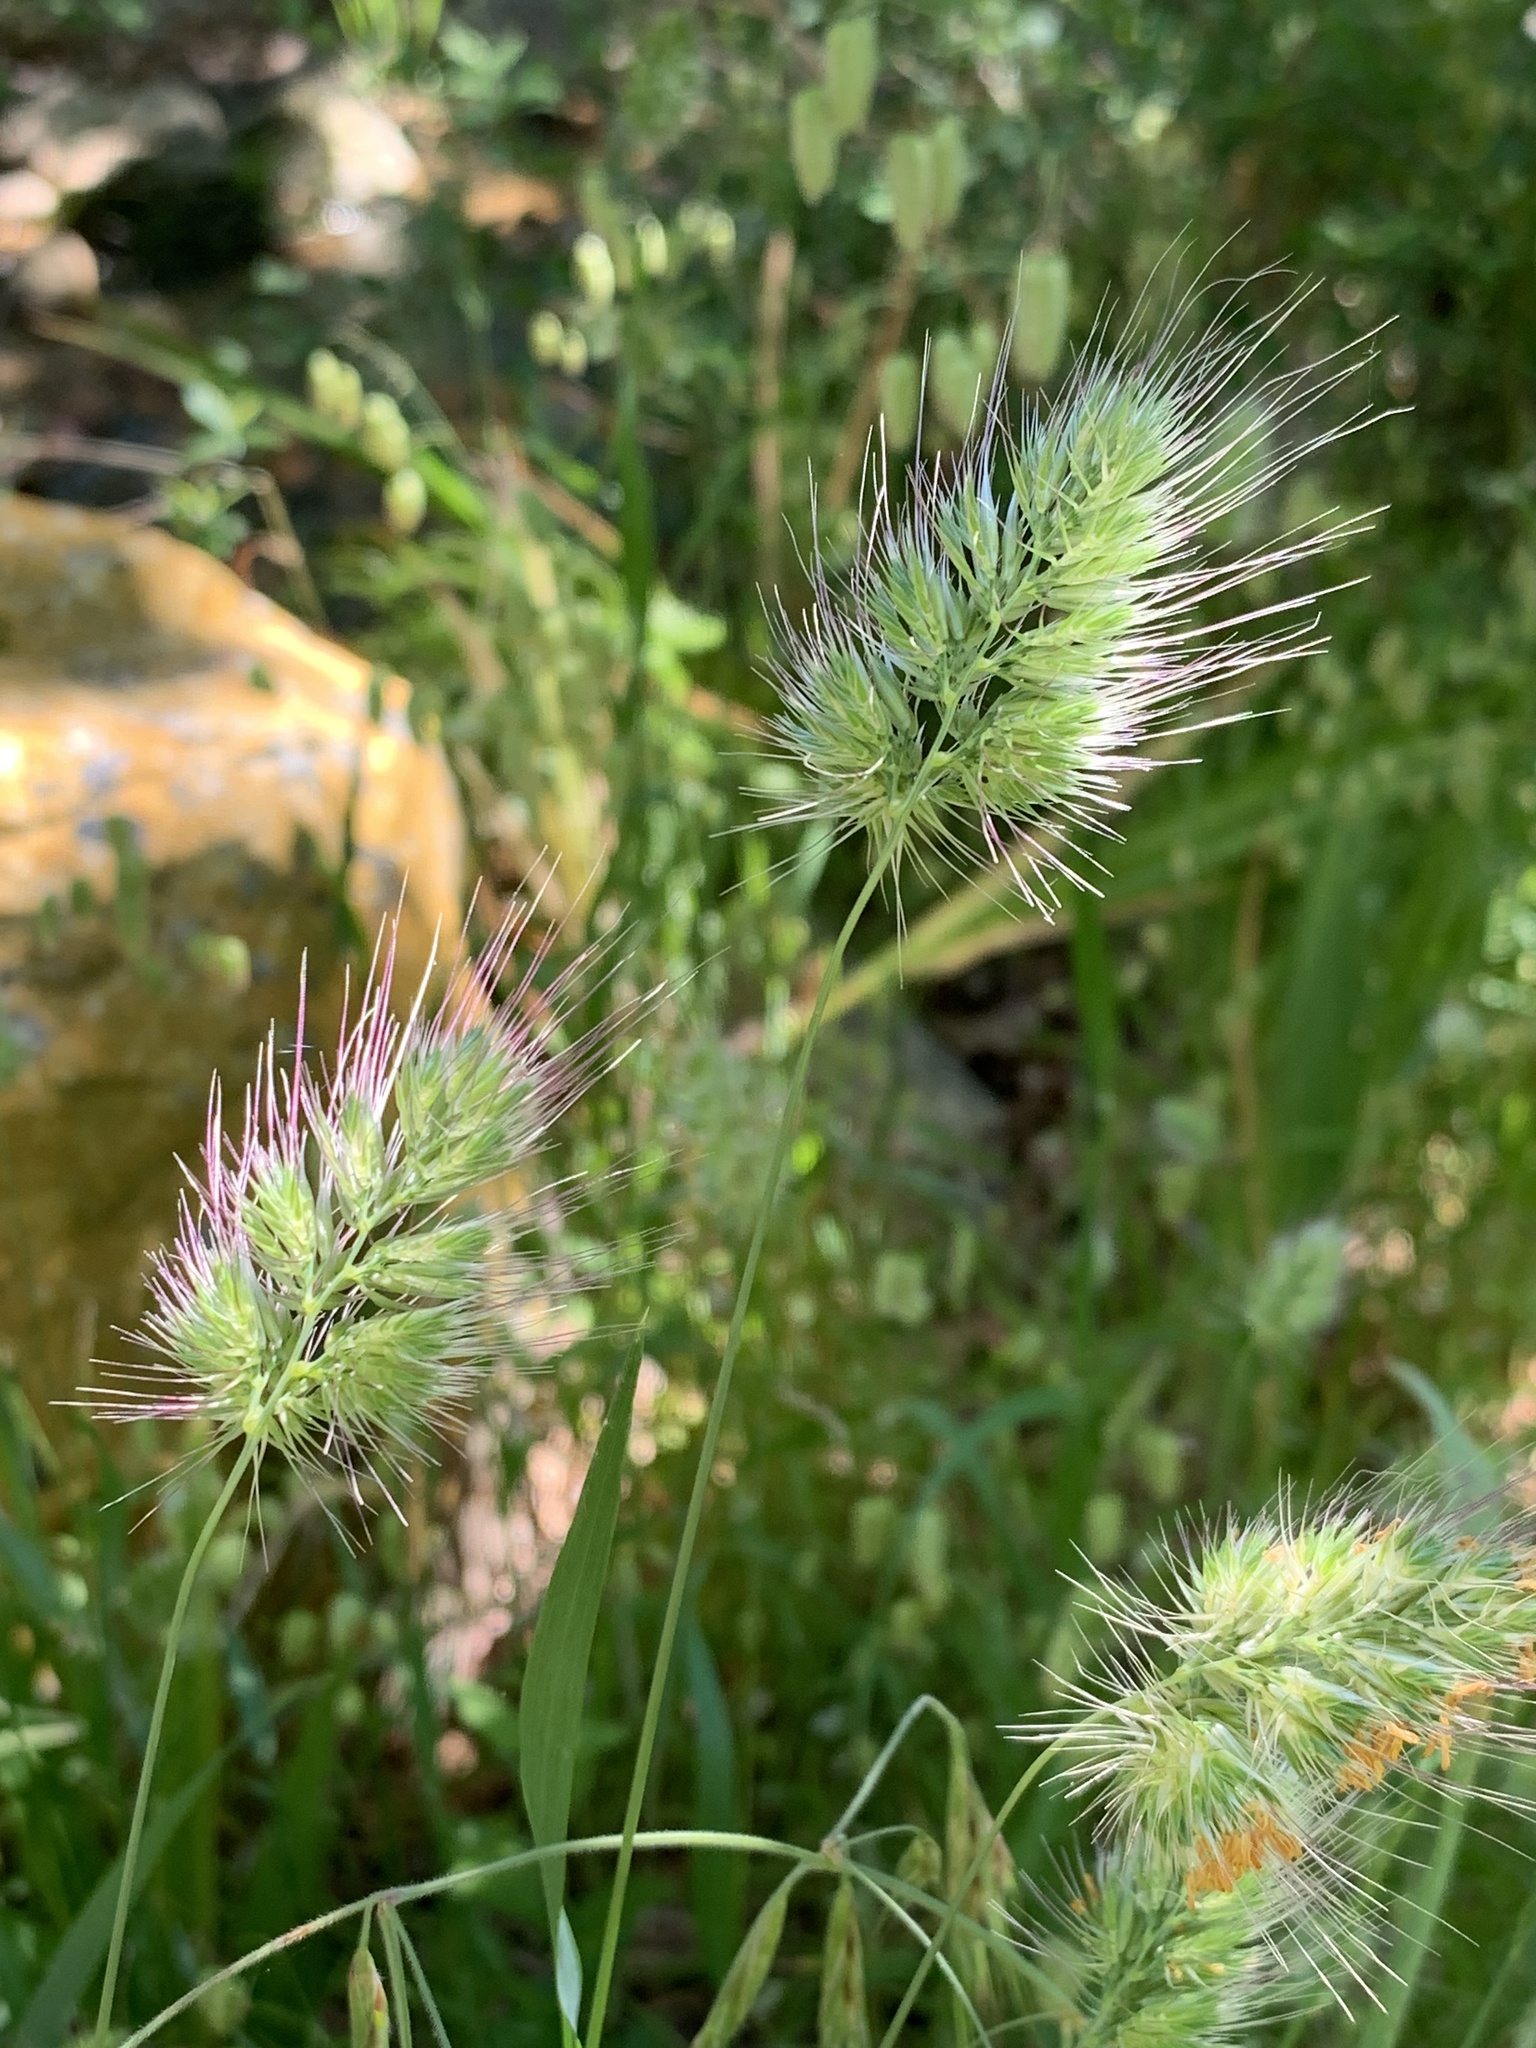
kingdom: Plantae
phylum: Tracheophyta
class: Liliopsida
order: Poales
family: Poaceae
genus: Cynosurus
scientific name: Cynosurus echinatus
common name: Rough dog's-tail
